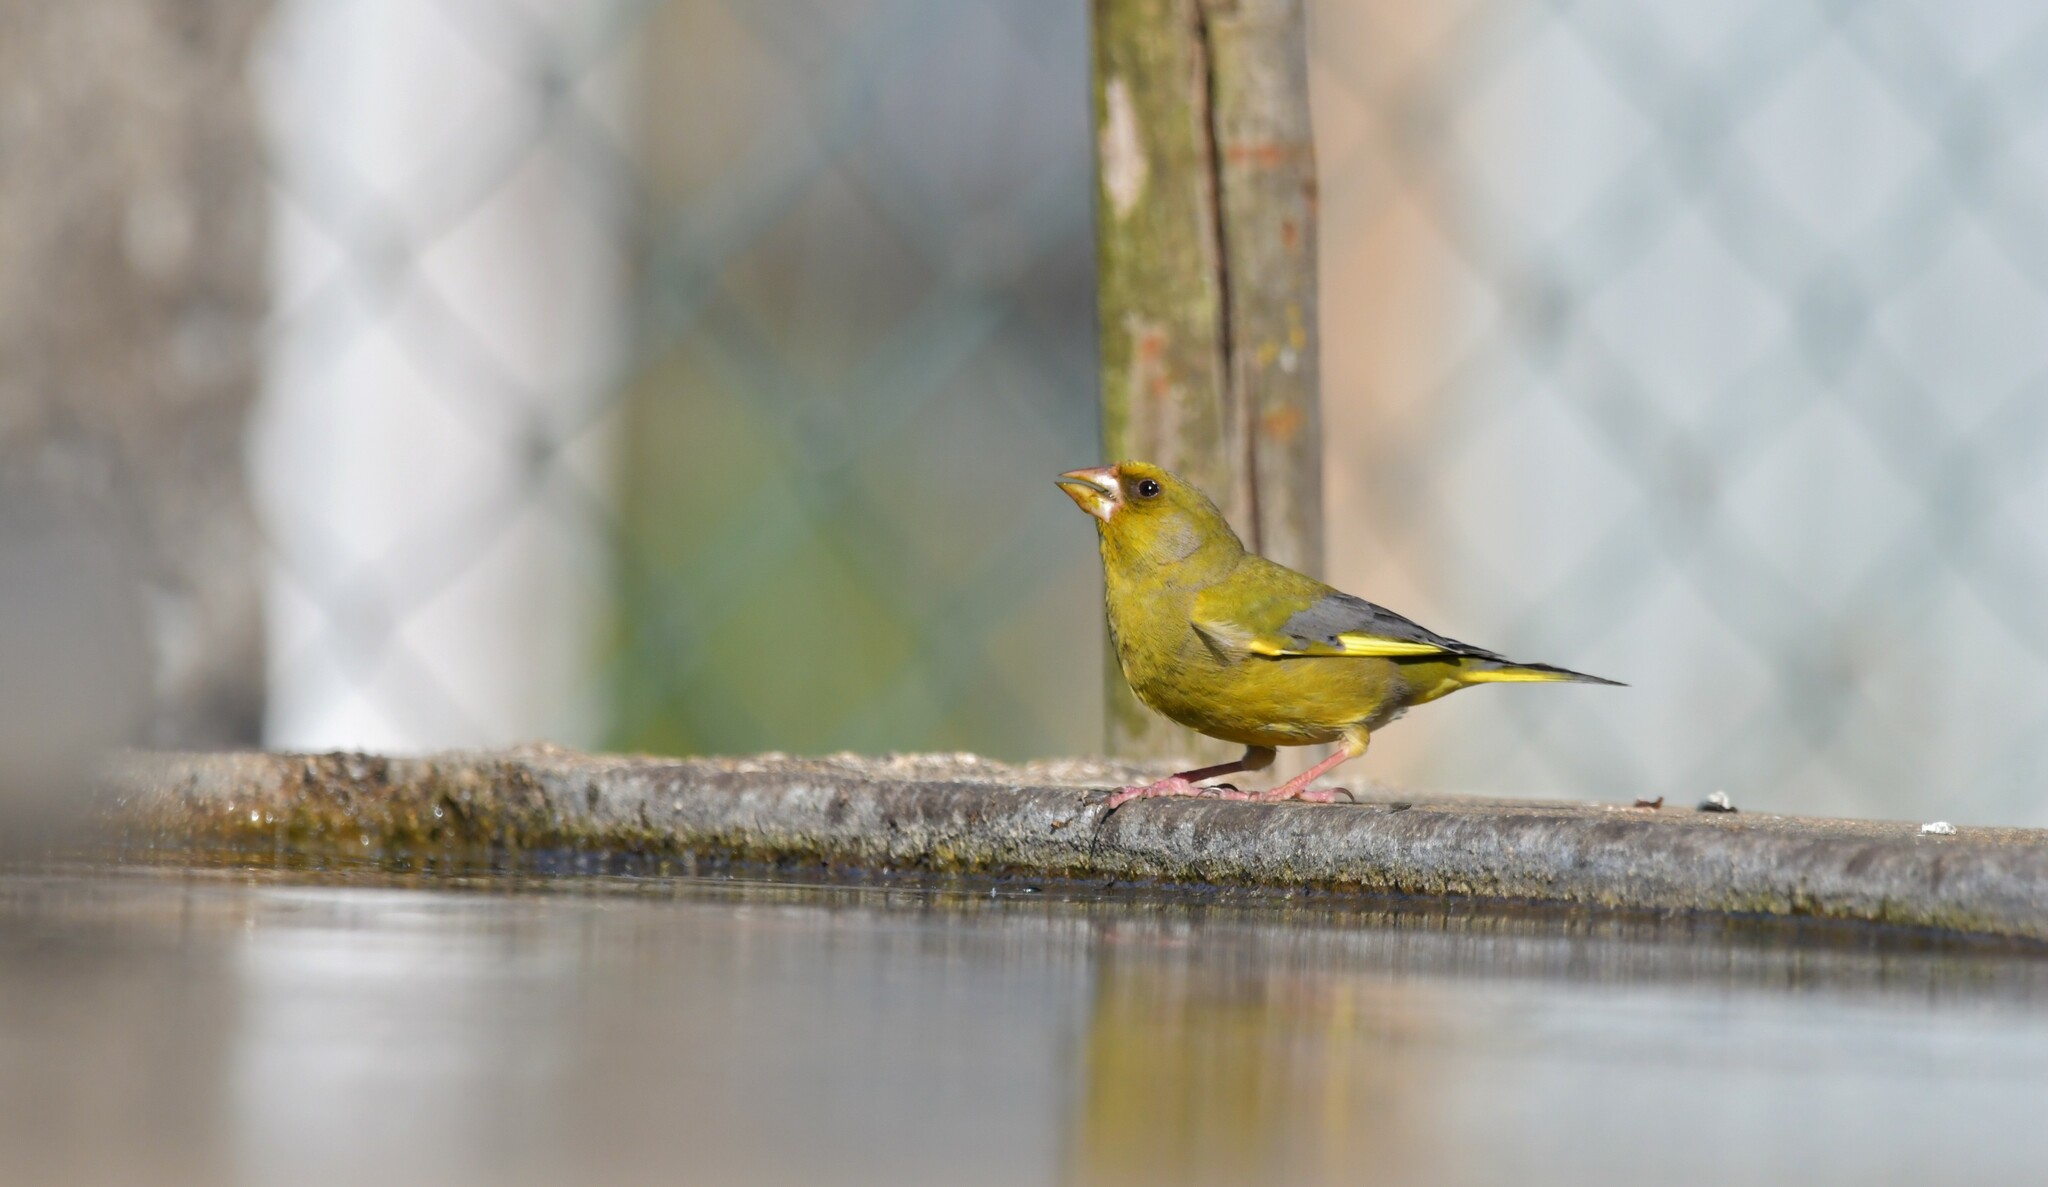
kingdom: Plantae
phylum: Tracheophyta
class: Liliopsida
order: Poales
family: Poaceae
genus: Chloris
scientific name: Chloris chloris
